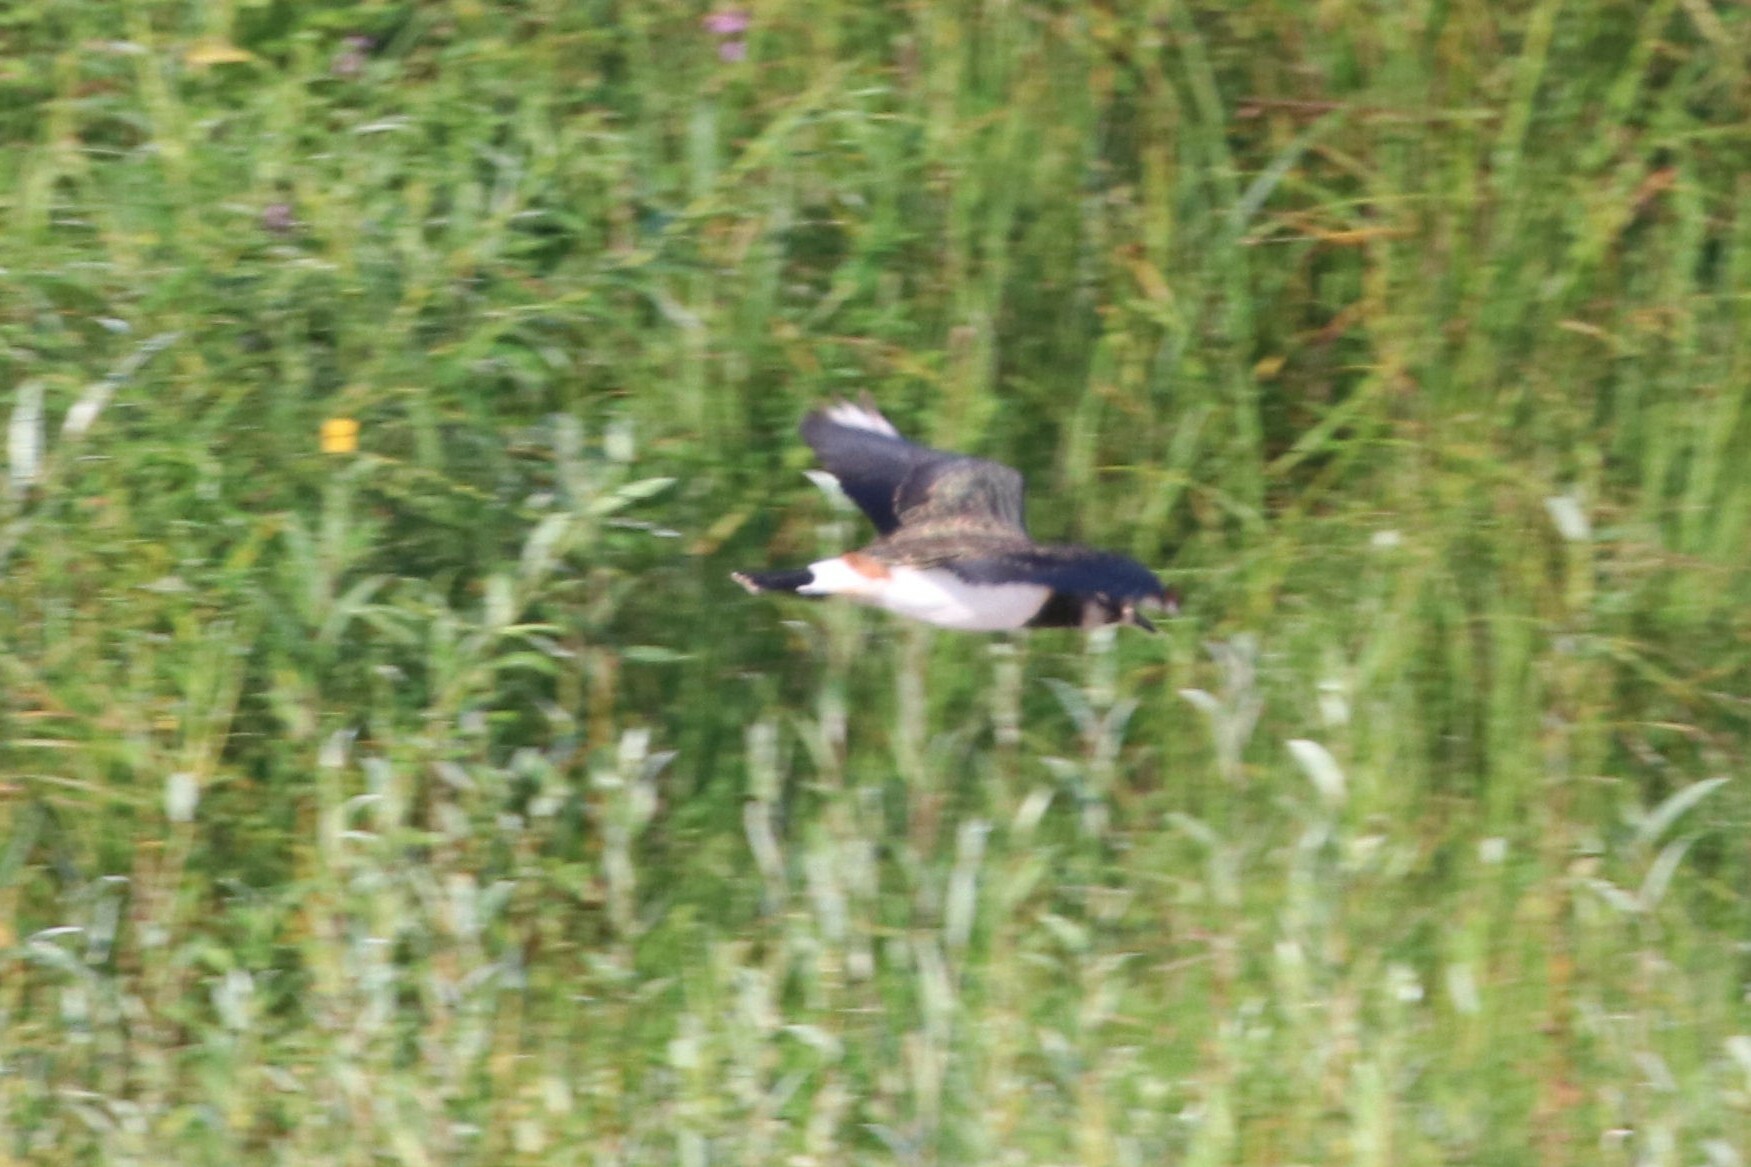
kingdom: Animalia
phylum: Chordata
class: Aves
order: Charadriiformes
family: Charadriidae
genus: Vanellus
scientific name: Vanellus vanellus
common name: Northern lapwing
